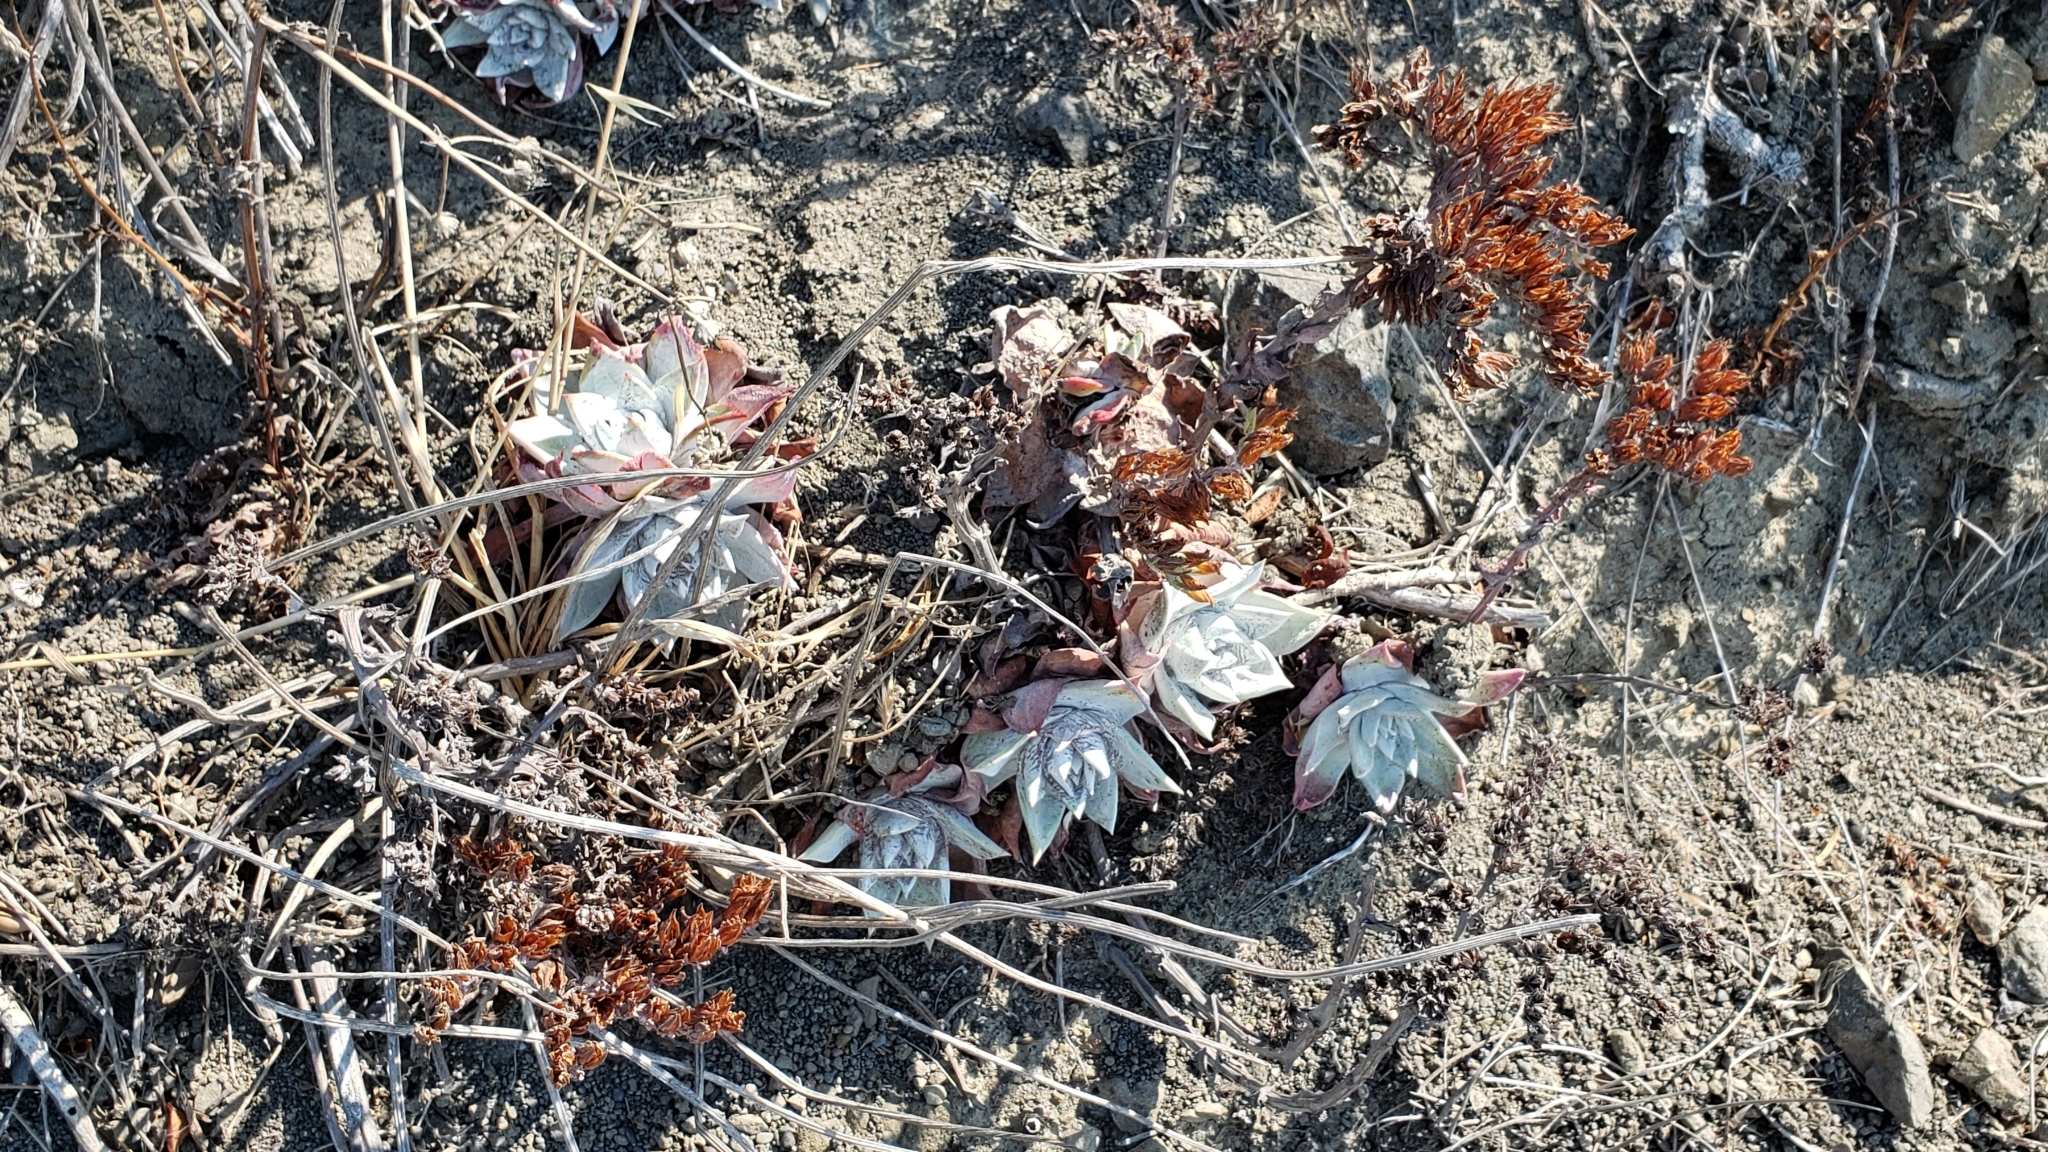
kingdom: Plantae
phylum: Tracheophyta
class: Magnoliopsida
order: Saxifragales
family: Crassulaceae
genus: Dudleya
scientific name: Dudleya farinosa
